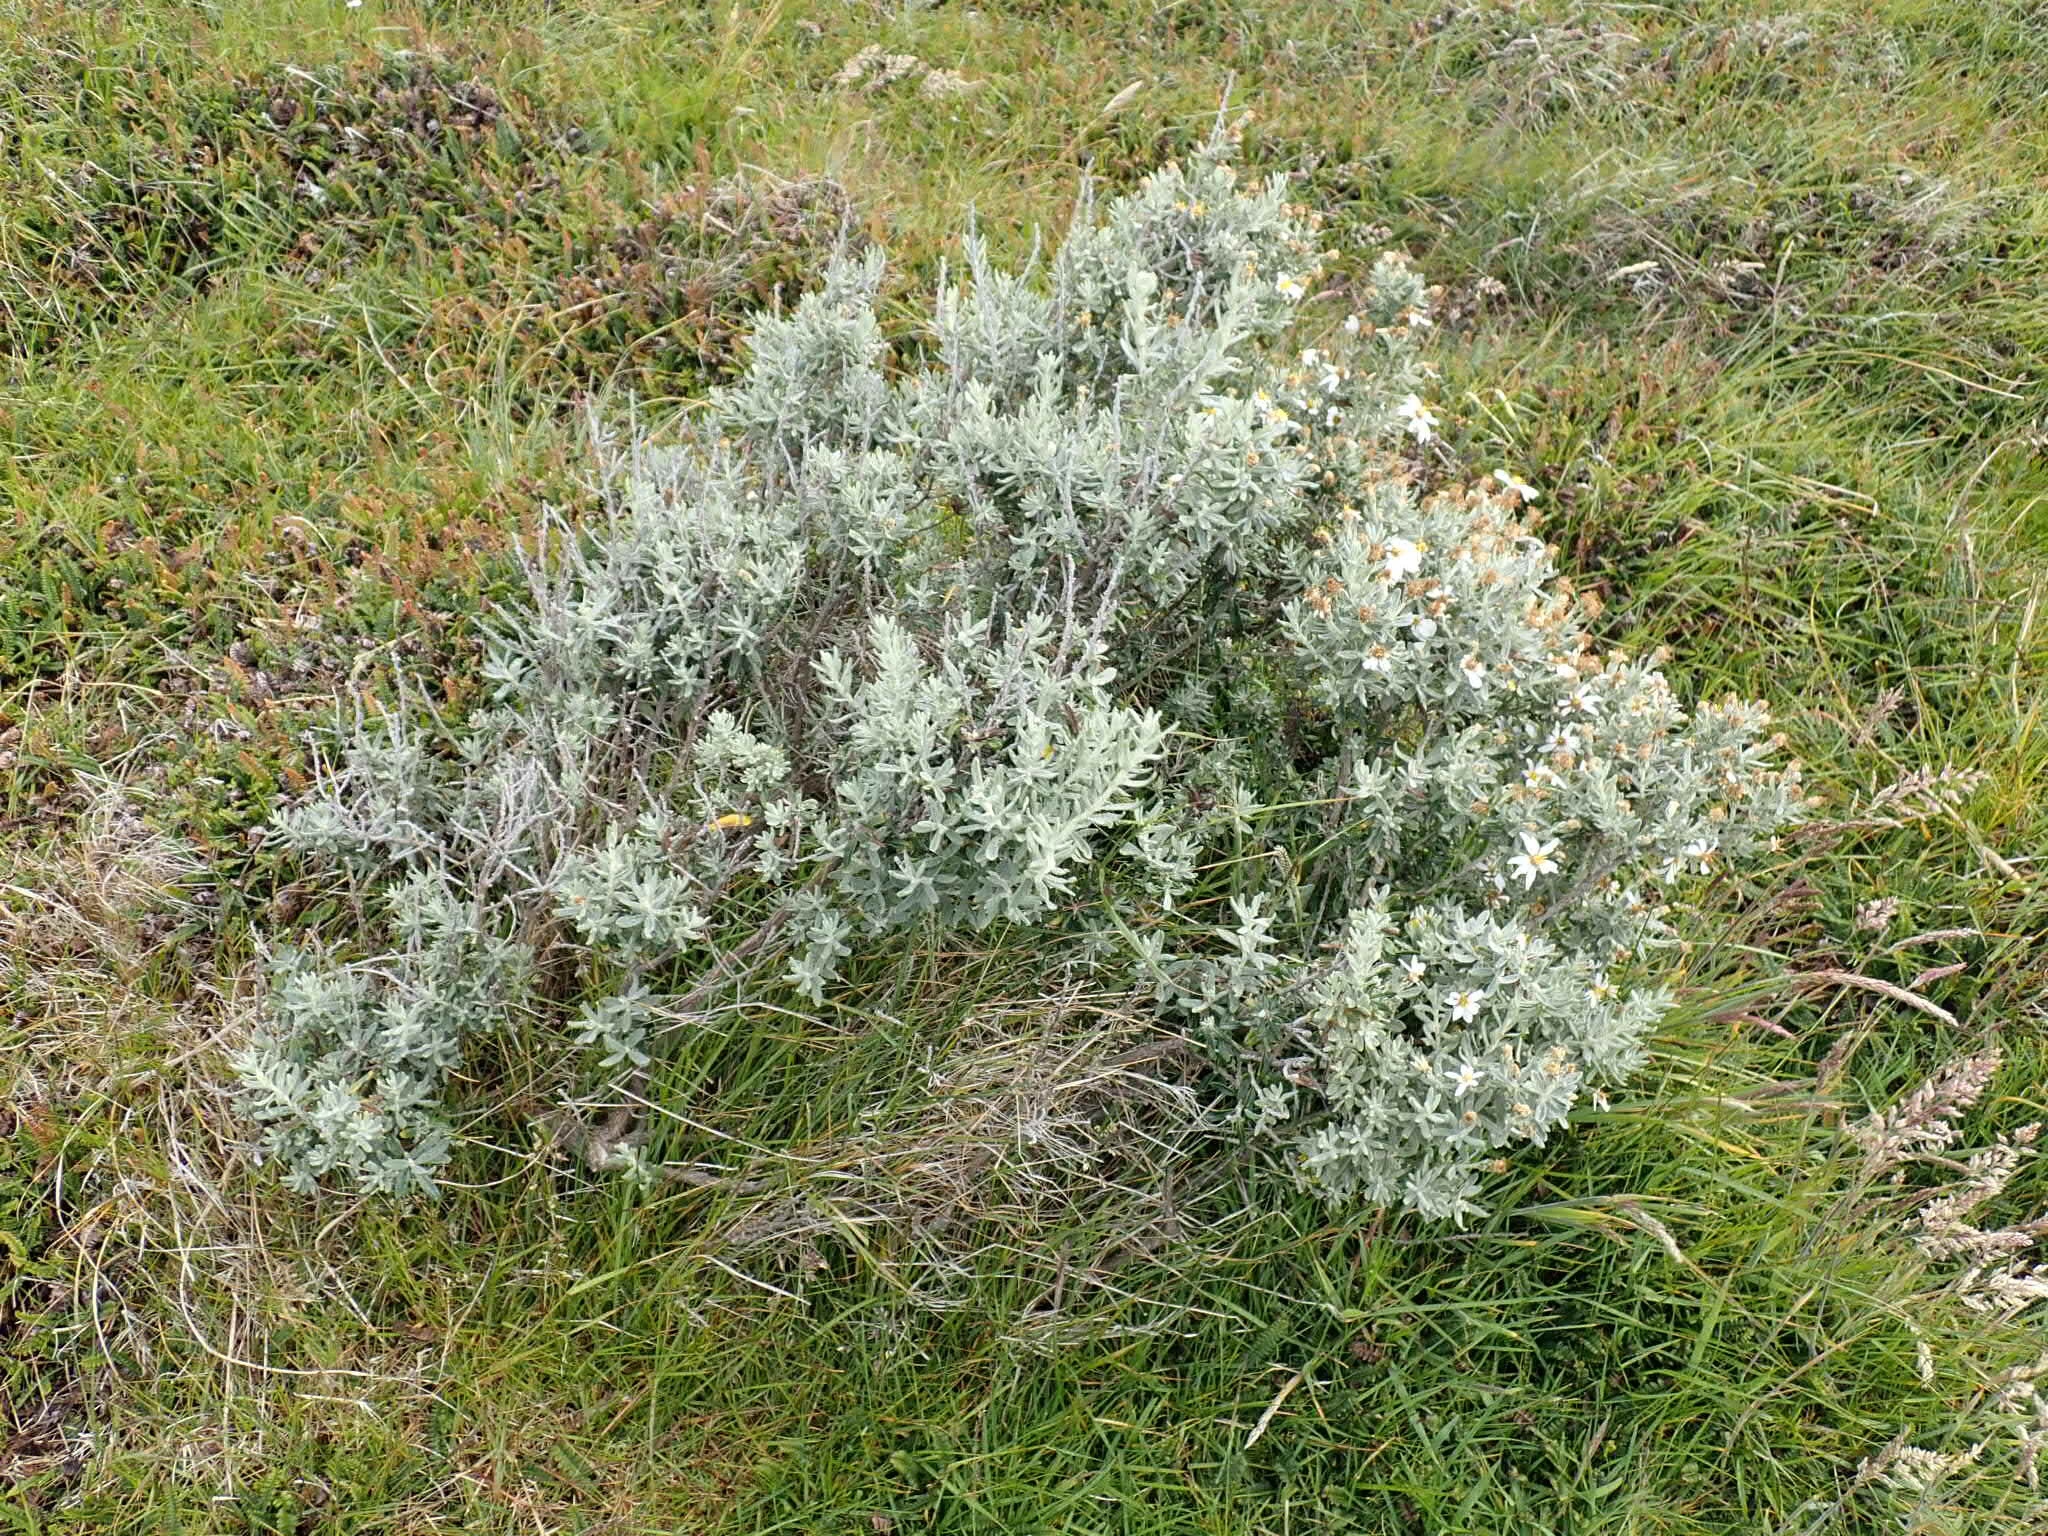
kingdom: Plantae
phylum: Tracheophyta
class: Magnoliopsida
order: Asterales
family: Asteraceae
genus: Chiliotrichum
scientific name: Chiliotrichum diffusum
